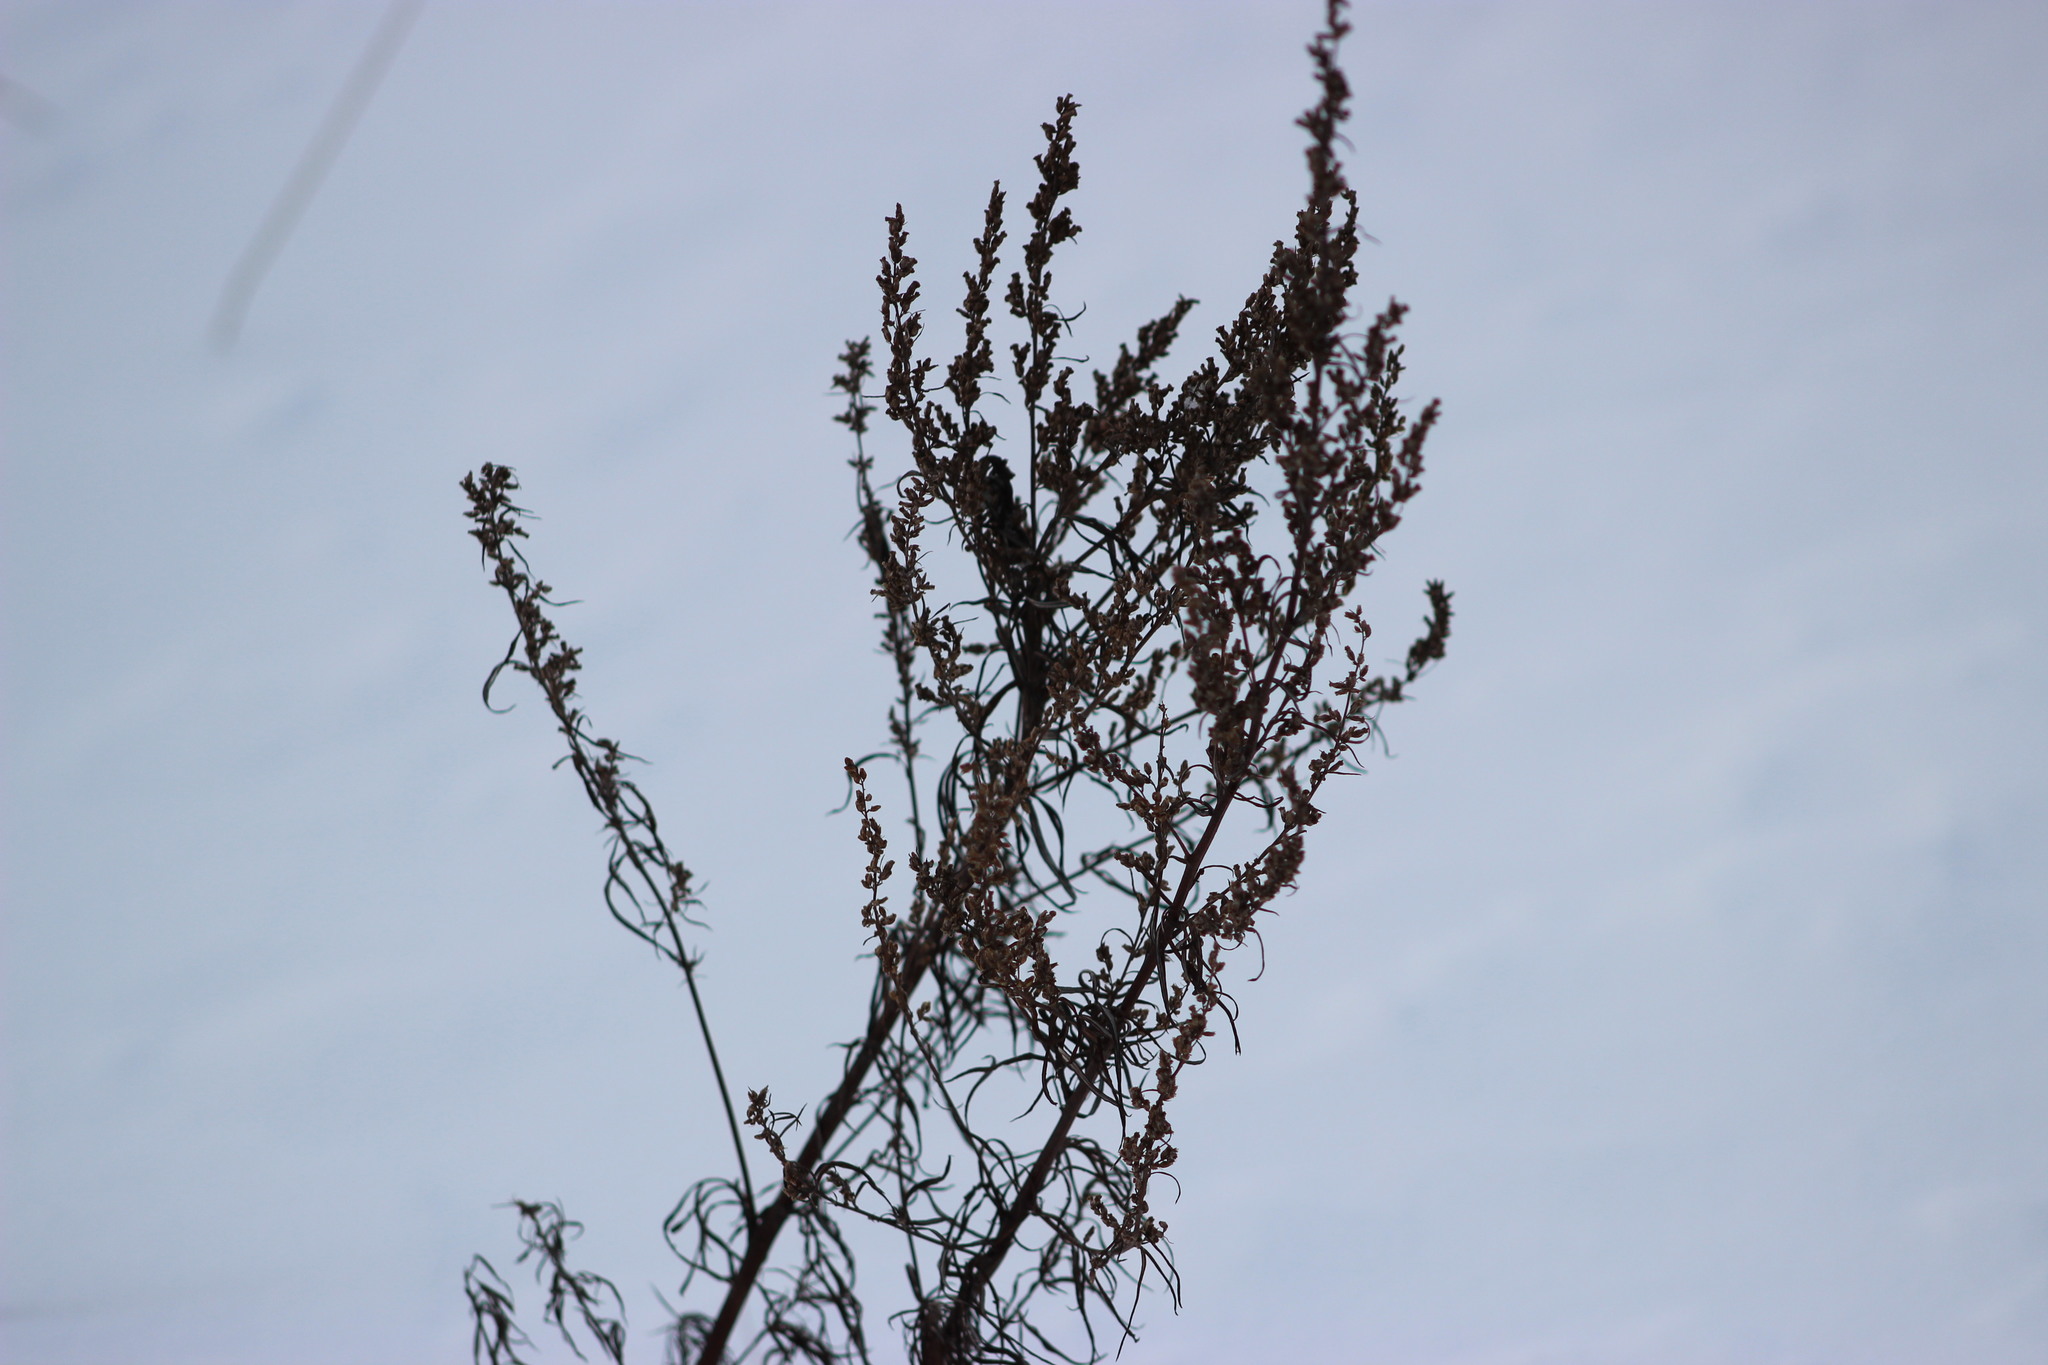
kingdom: Plantae
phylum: Tracheophyta
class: Magnoliopsida
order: Asterales
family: Asteraceae
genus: Artemisia
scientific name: Artemisia vulgaris
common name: Mugwort
